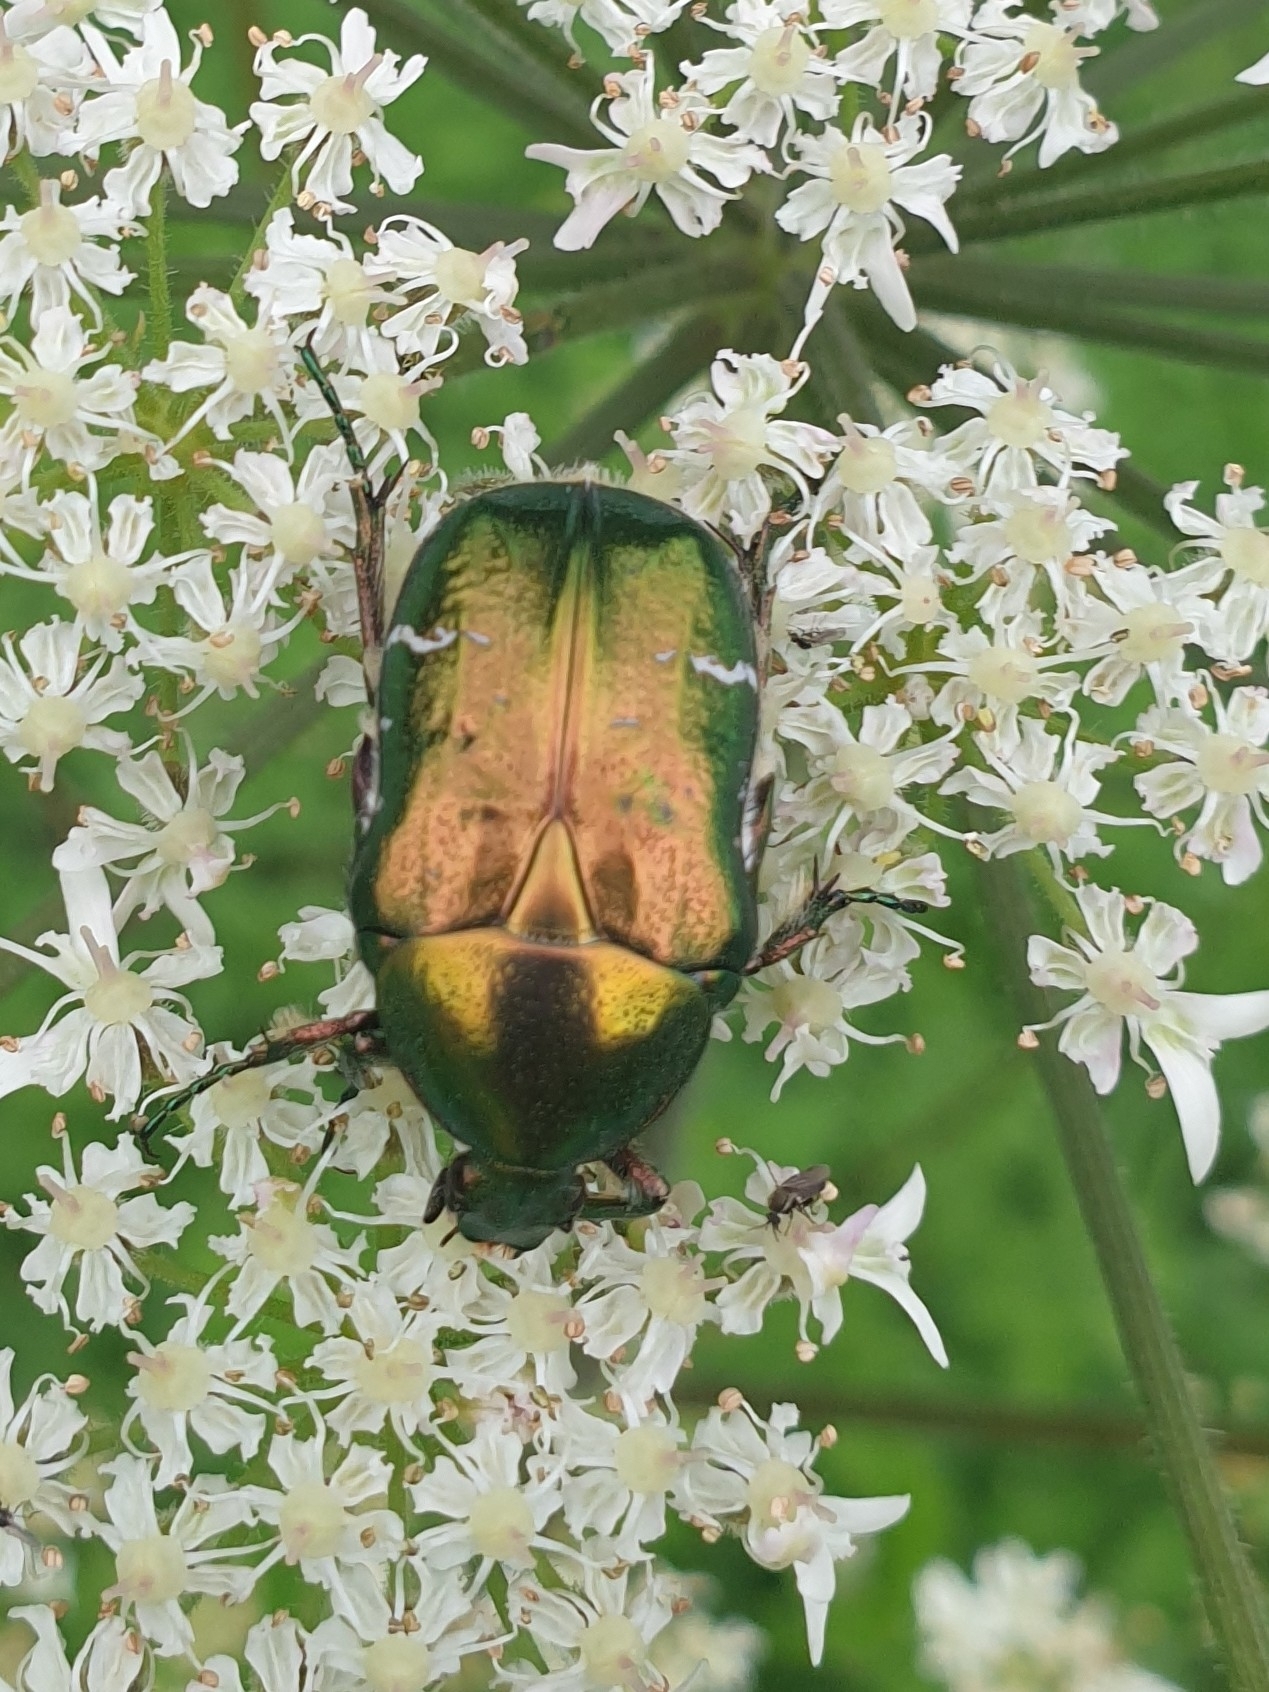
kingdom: Animalia
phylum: Arthropoda
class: Insecta
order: Coleoptera
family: Scarabaeidae
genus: Cetonia
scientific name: Cetonia aurata
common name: Rose chafer
